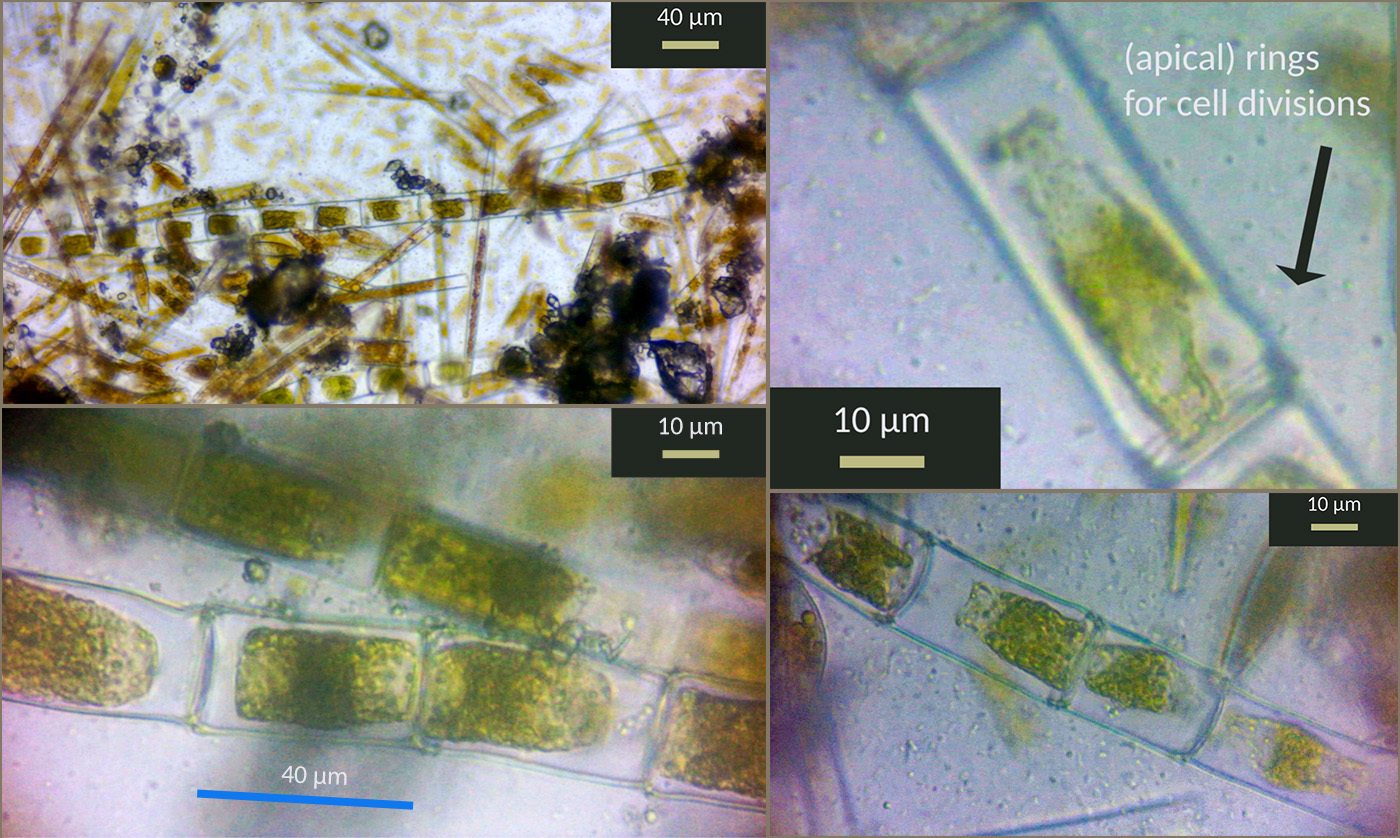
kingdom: Plantae
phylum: Chlorophyta
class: Chlorophyceae
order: Oedogoniales
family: Oedogoniaceae
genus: Oedogonium
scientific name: Oedogonium
